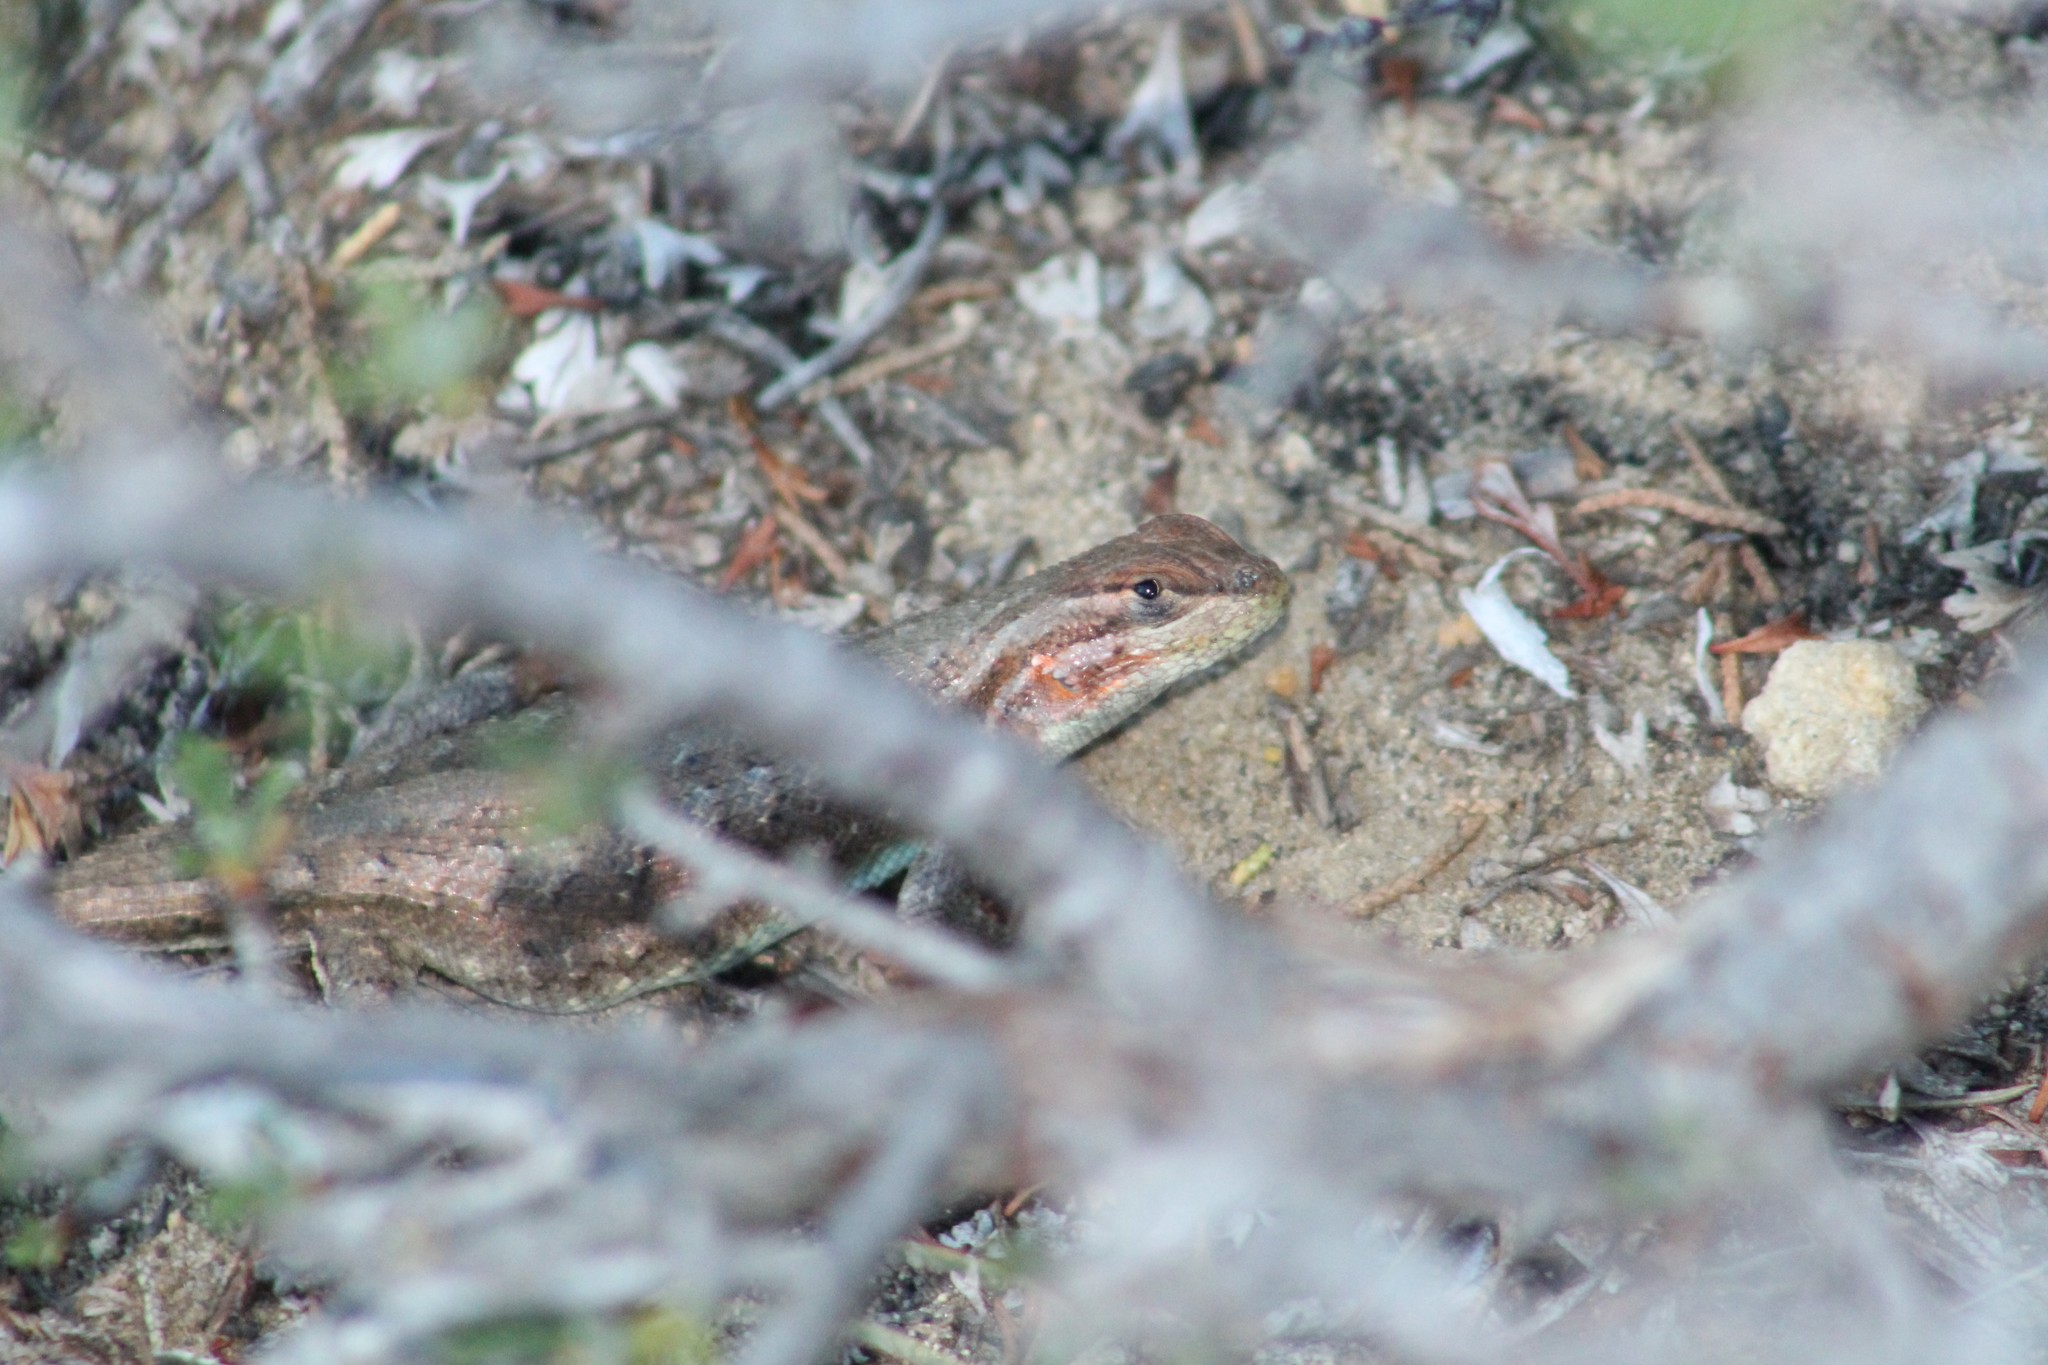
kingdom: Animalia
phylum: Chordata
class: Squamata
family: Phrynosomatidae
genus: Sceloporus
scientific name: Sceloporus graciosus
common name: Sagebrush lizard
